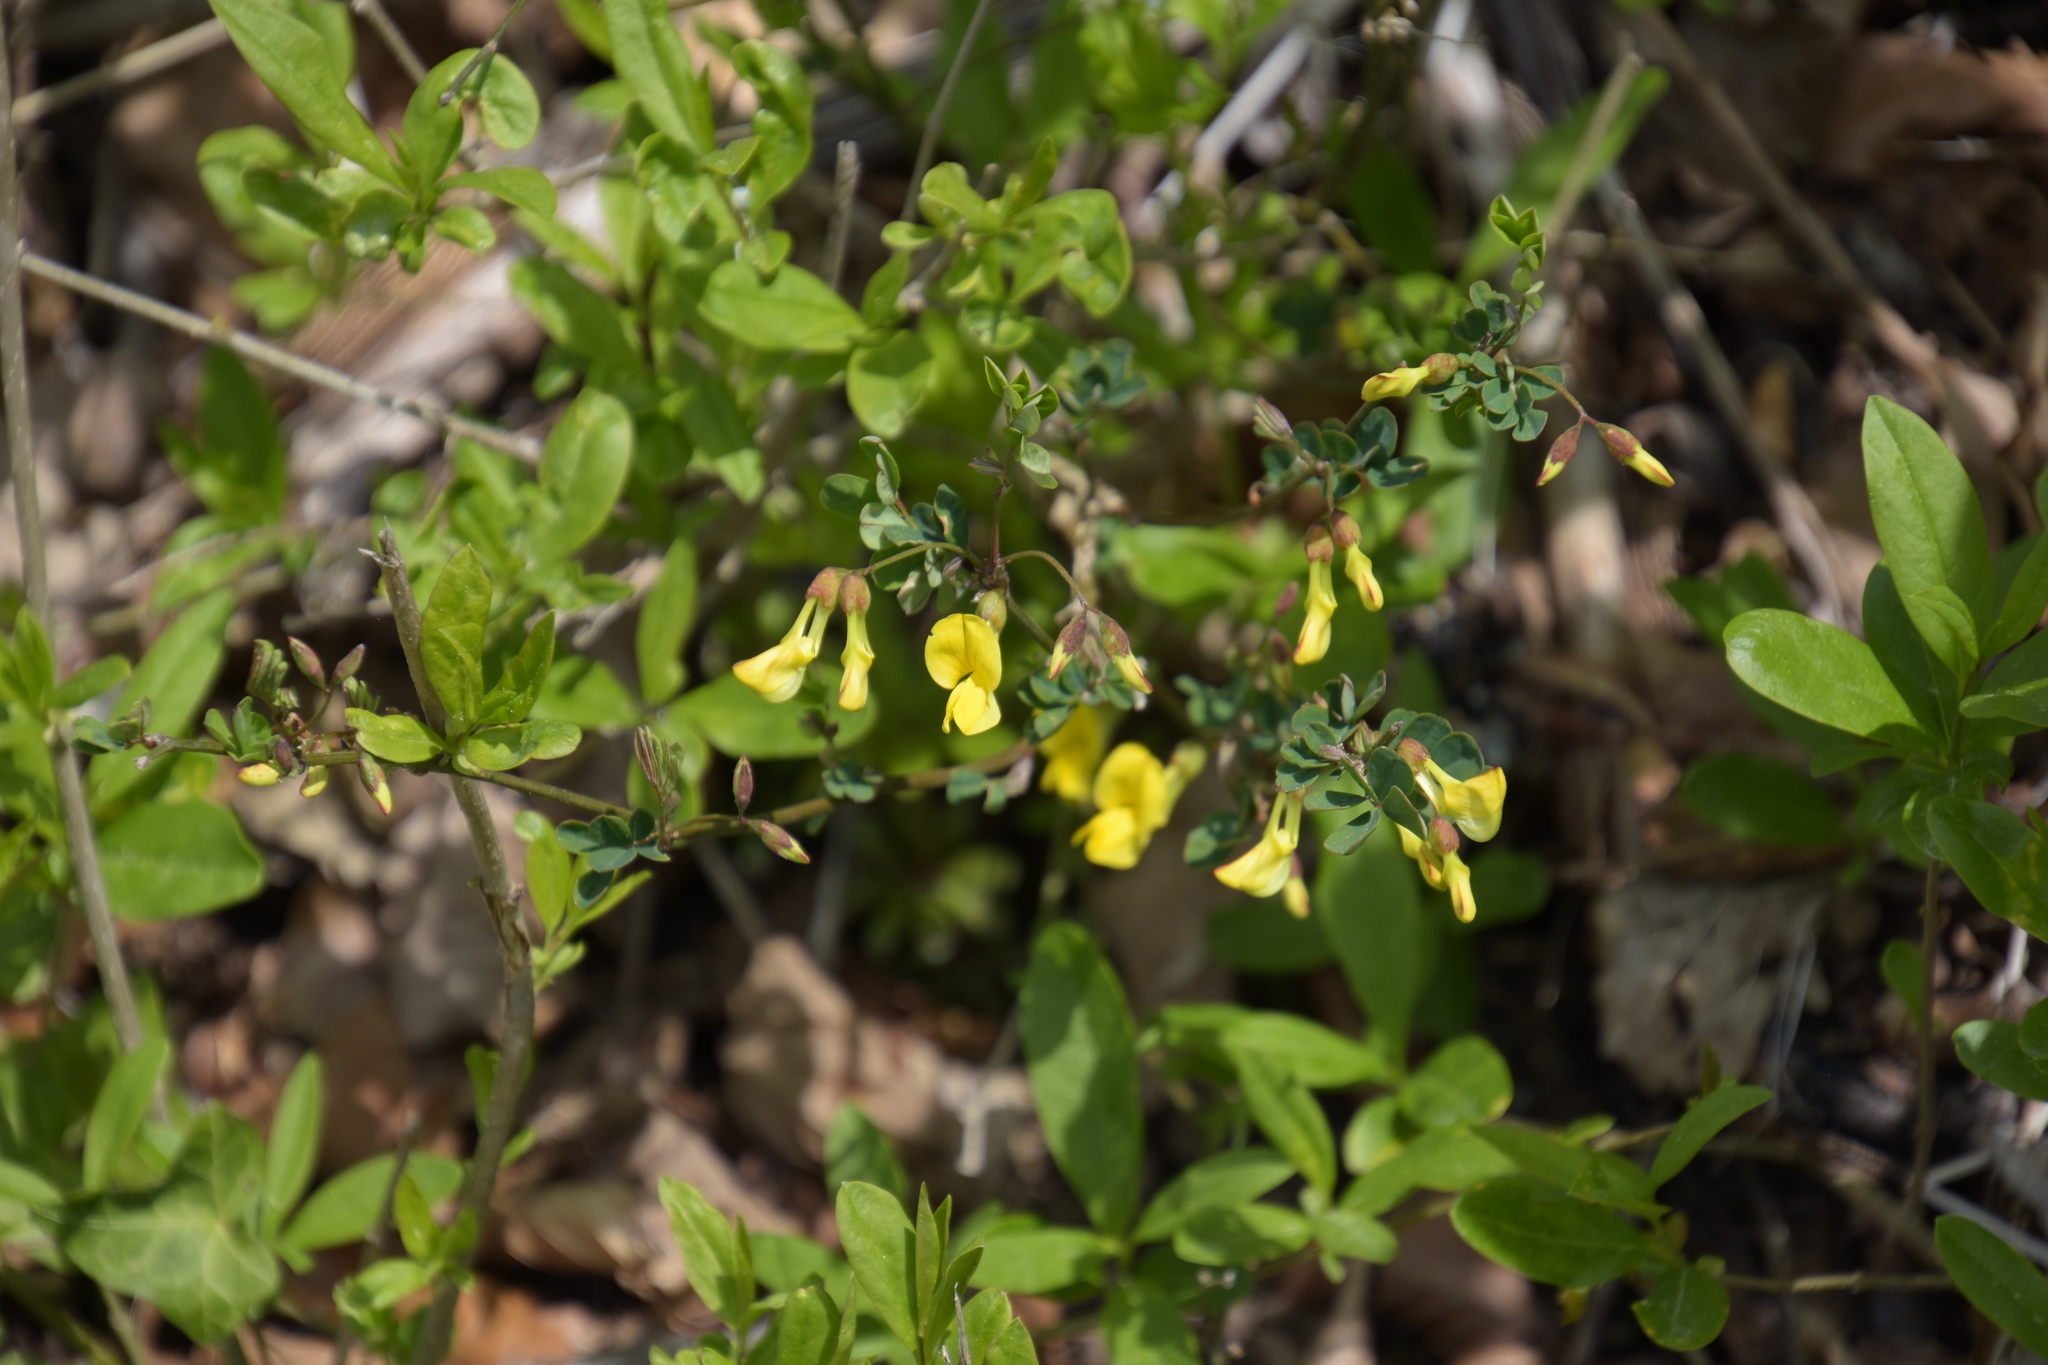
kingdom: Plantae
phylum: Tracheophyta
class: Magnoliopsida
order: Fabales
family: Fabaceae
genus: Hippocrepis
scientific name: Hippocrepis emerus
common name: Scorpion senna
